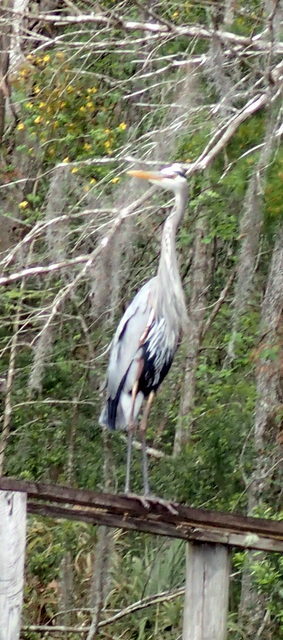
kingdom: Animalia
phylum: Chordata
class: Aves
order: Pelecaniformes
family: Ardeidae
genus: Ardea
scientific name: Ardea herodias
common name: Great blue heron
